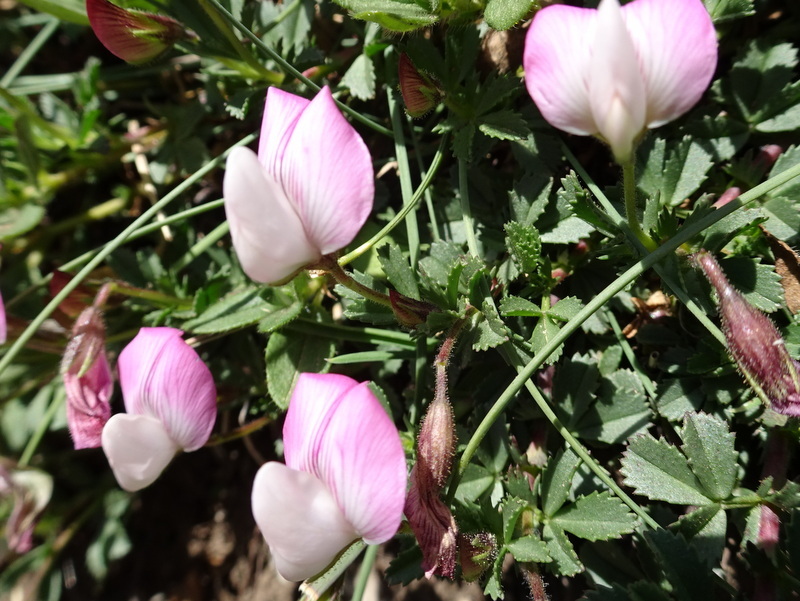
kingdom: Plantae
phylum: Tracheophyta
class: Magnoliopsida
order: Fabales
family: Fabaceae
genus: Ononis
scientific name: Ononis spinosa
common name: Spiny restharrow
